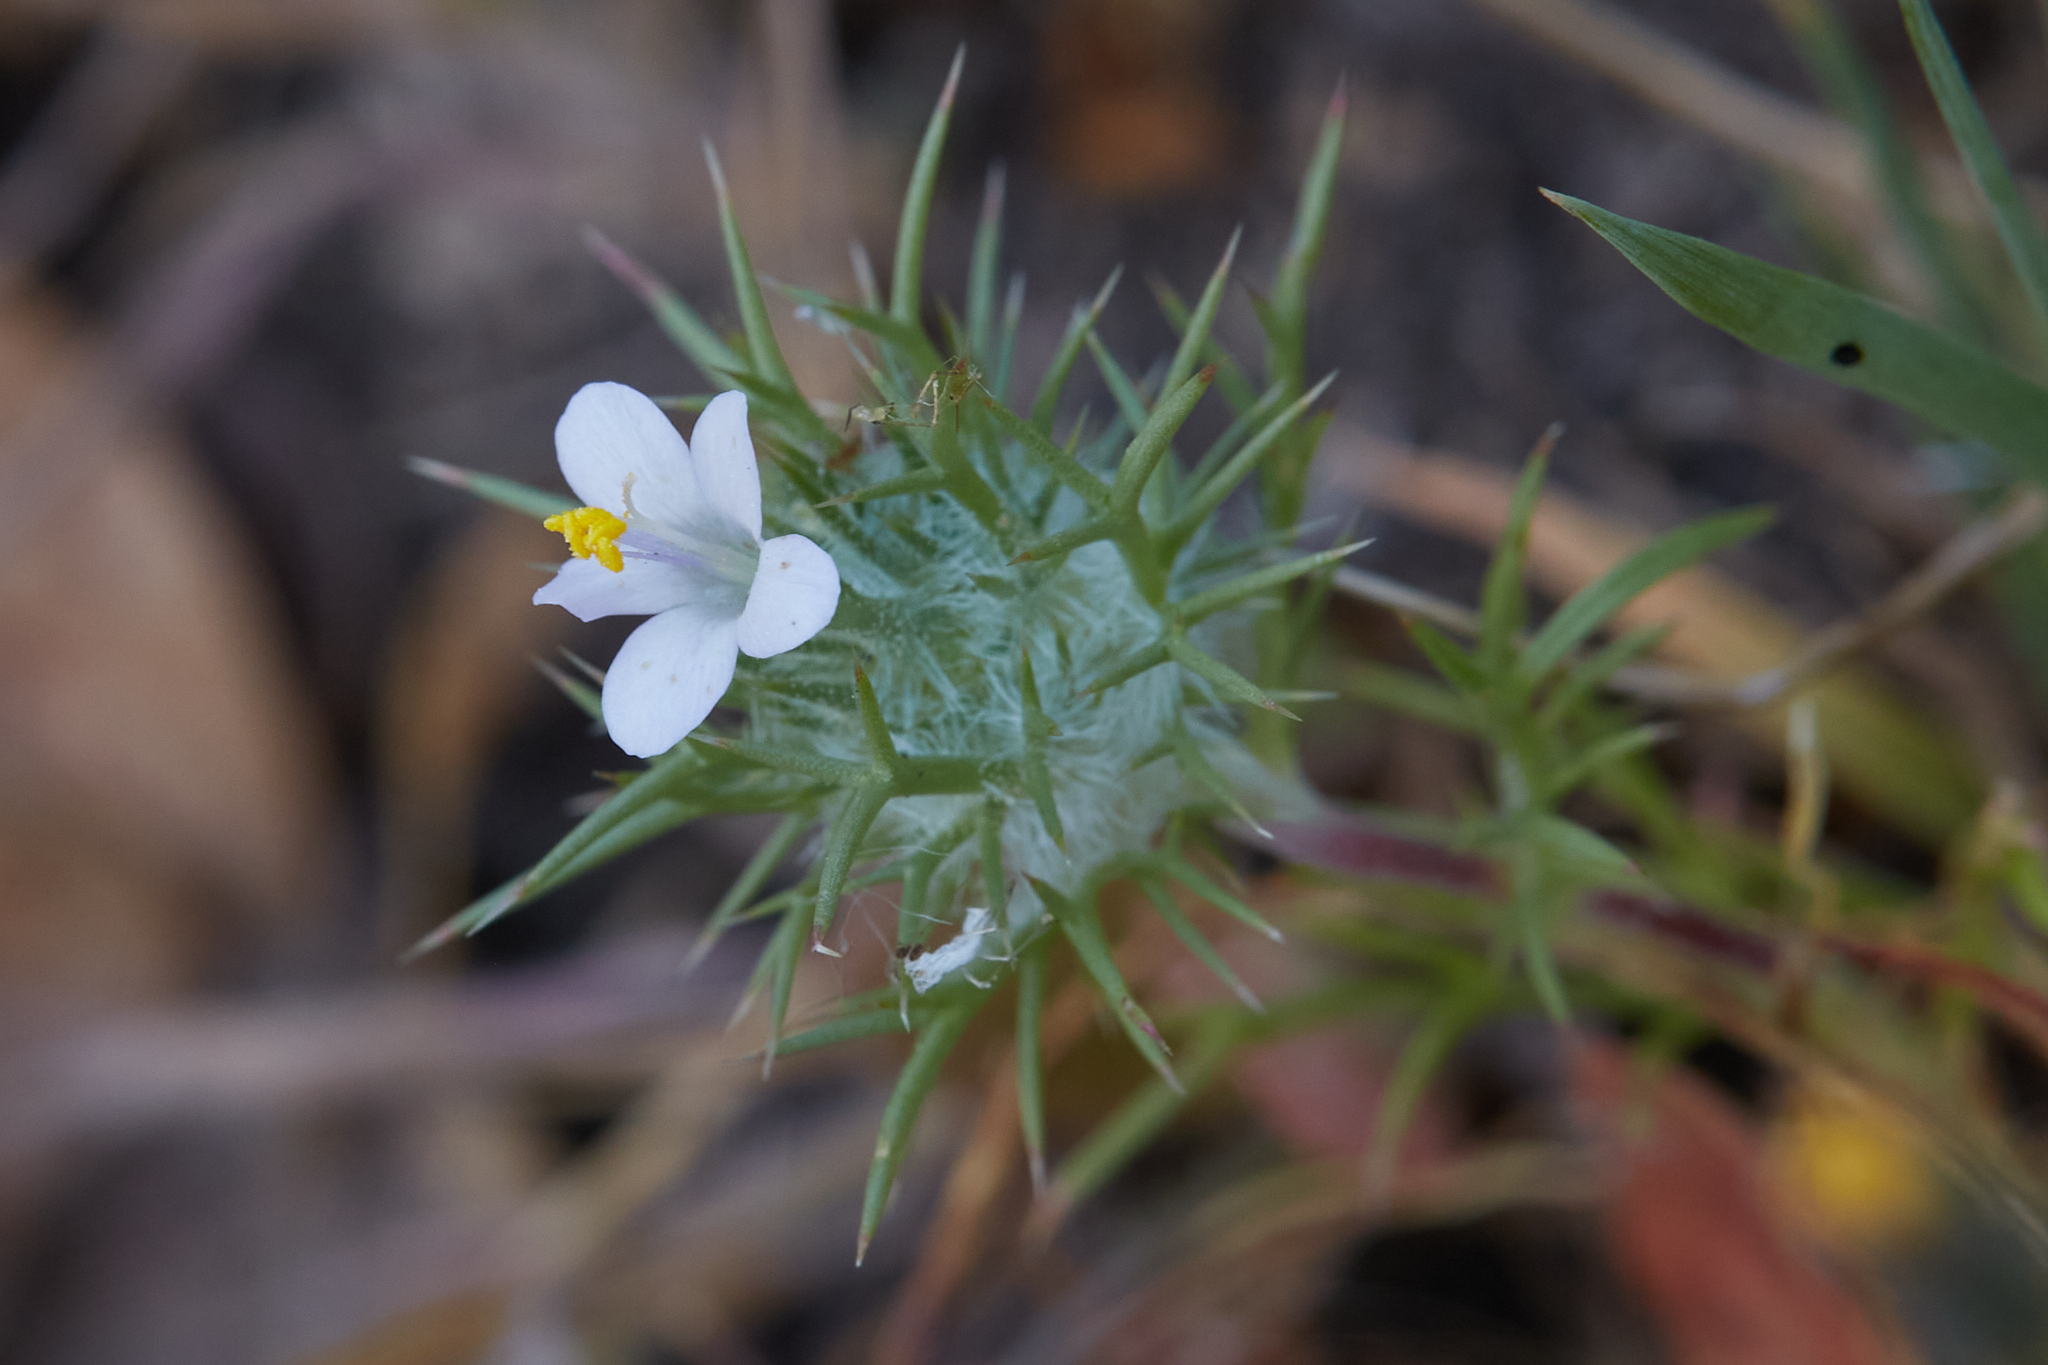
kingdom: Plantae
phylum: Tracheophyta
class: Magnoliopsida
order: Ericales
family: Polemoniaceae
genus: Navarretia
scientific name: Navarretia intertexta
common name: Needle-leaved navarretia
